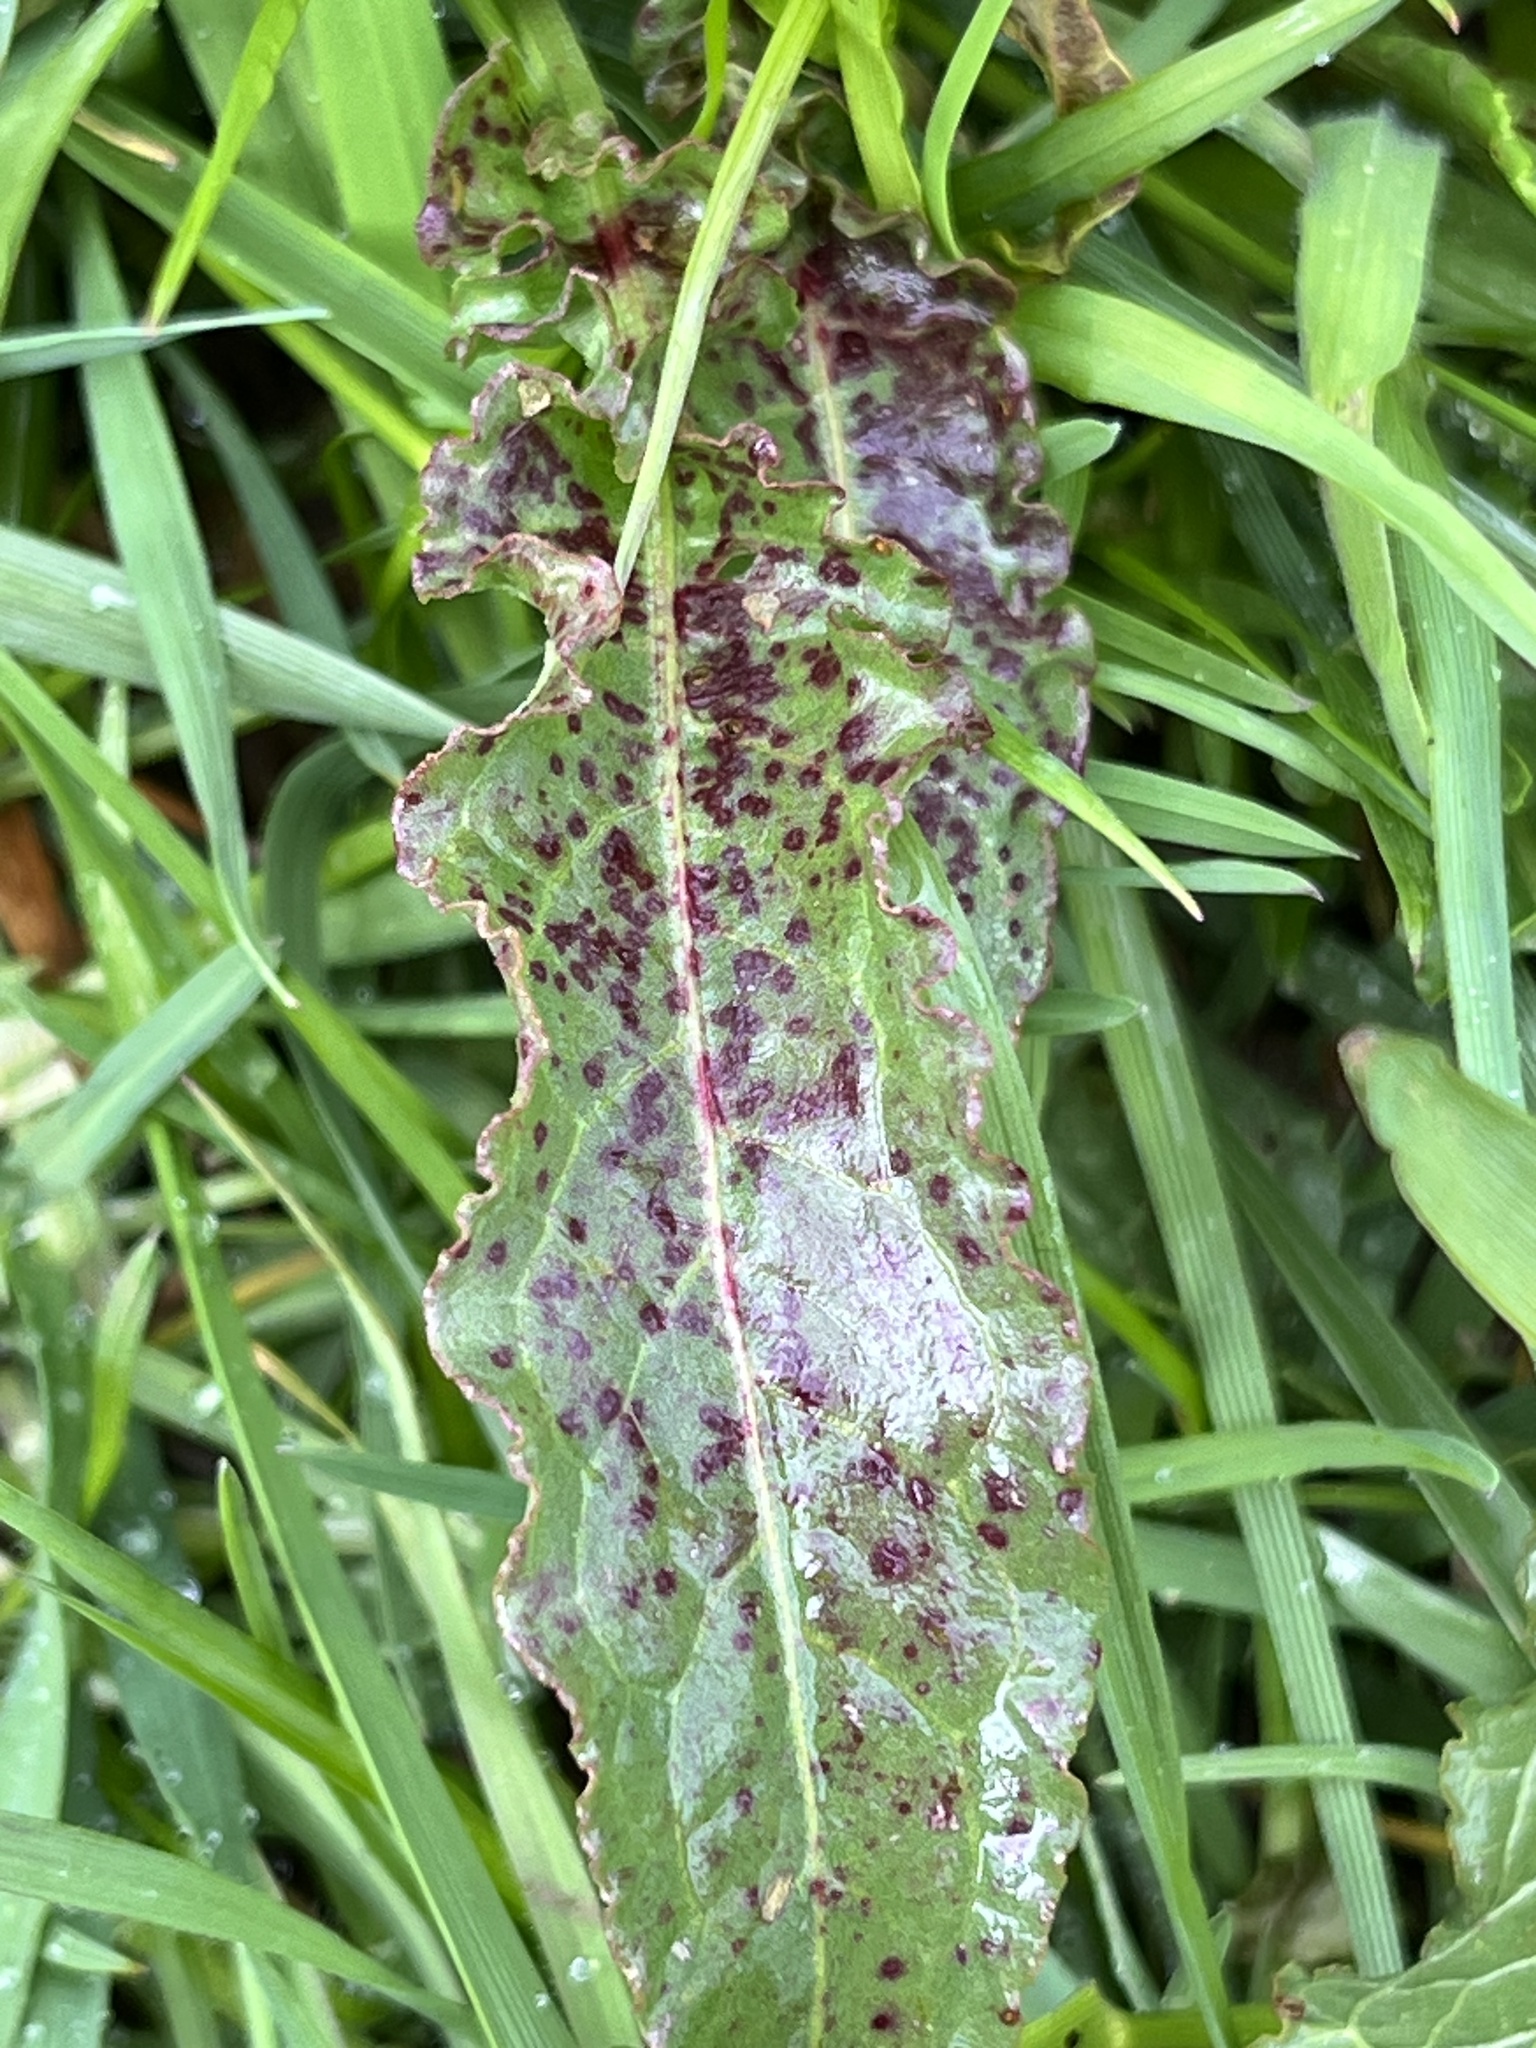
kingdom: Fungi
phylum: Ascomycota
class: Dothideomycetes
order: Mycosphaerellales
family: Mycosphaerellaceae
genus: Ramularia
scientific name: Ramularia rubella
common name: Red dock spot
